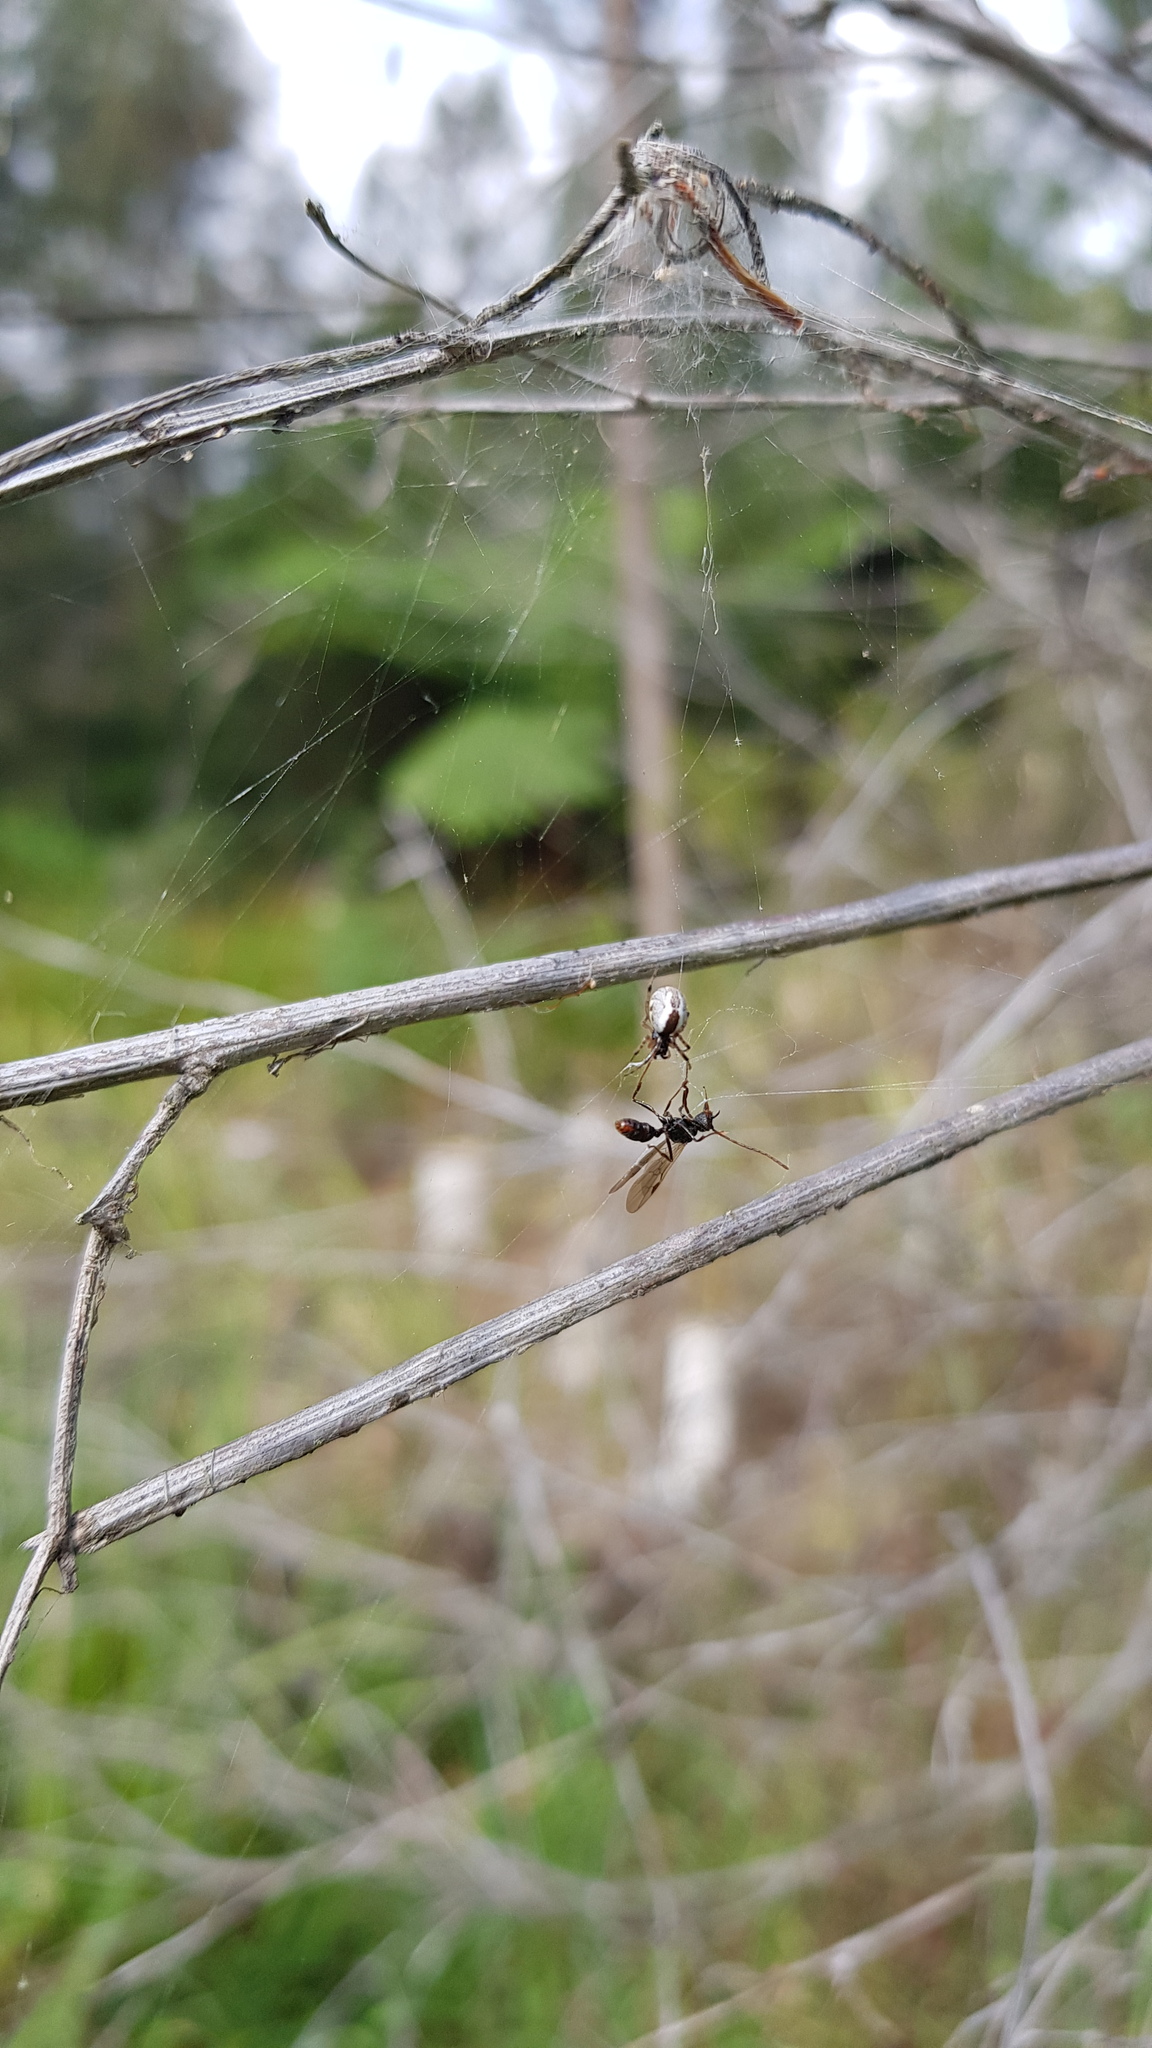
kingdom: Animalia
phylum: Arthropoda
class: Arachnida
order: Araneae
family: Theridiidae
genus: Theridion
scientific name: Theridion theridioides
